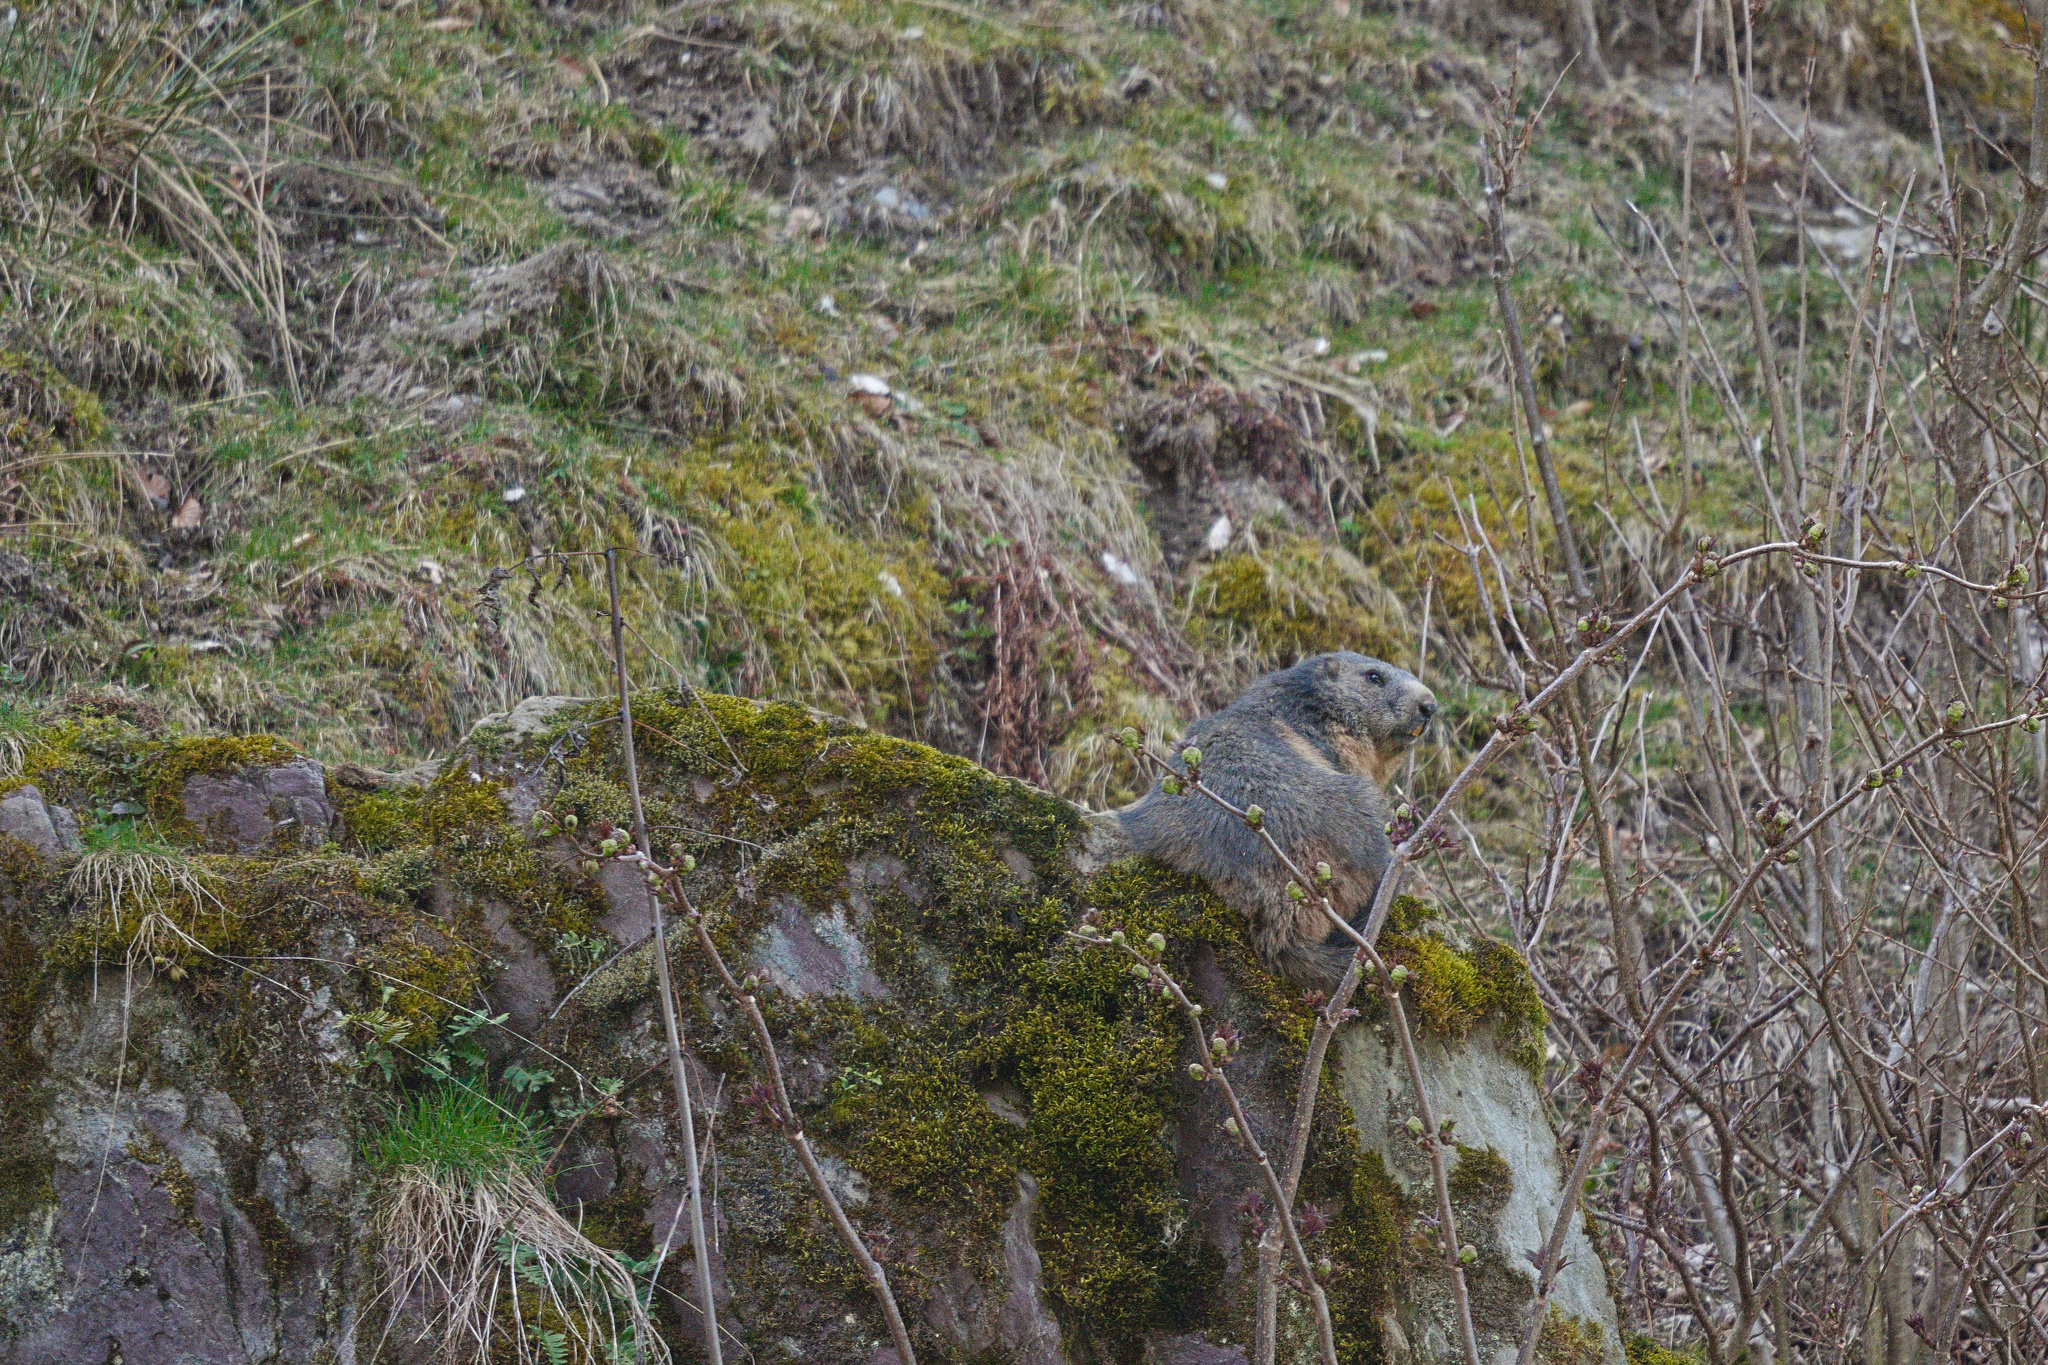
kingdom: Animalia
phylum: Chordata
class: Mammalia
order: Rodentia
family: Sciuridae
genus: Marmota
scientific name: Marmota marmota
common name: Alpine marmot
